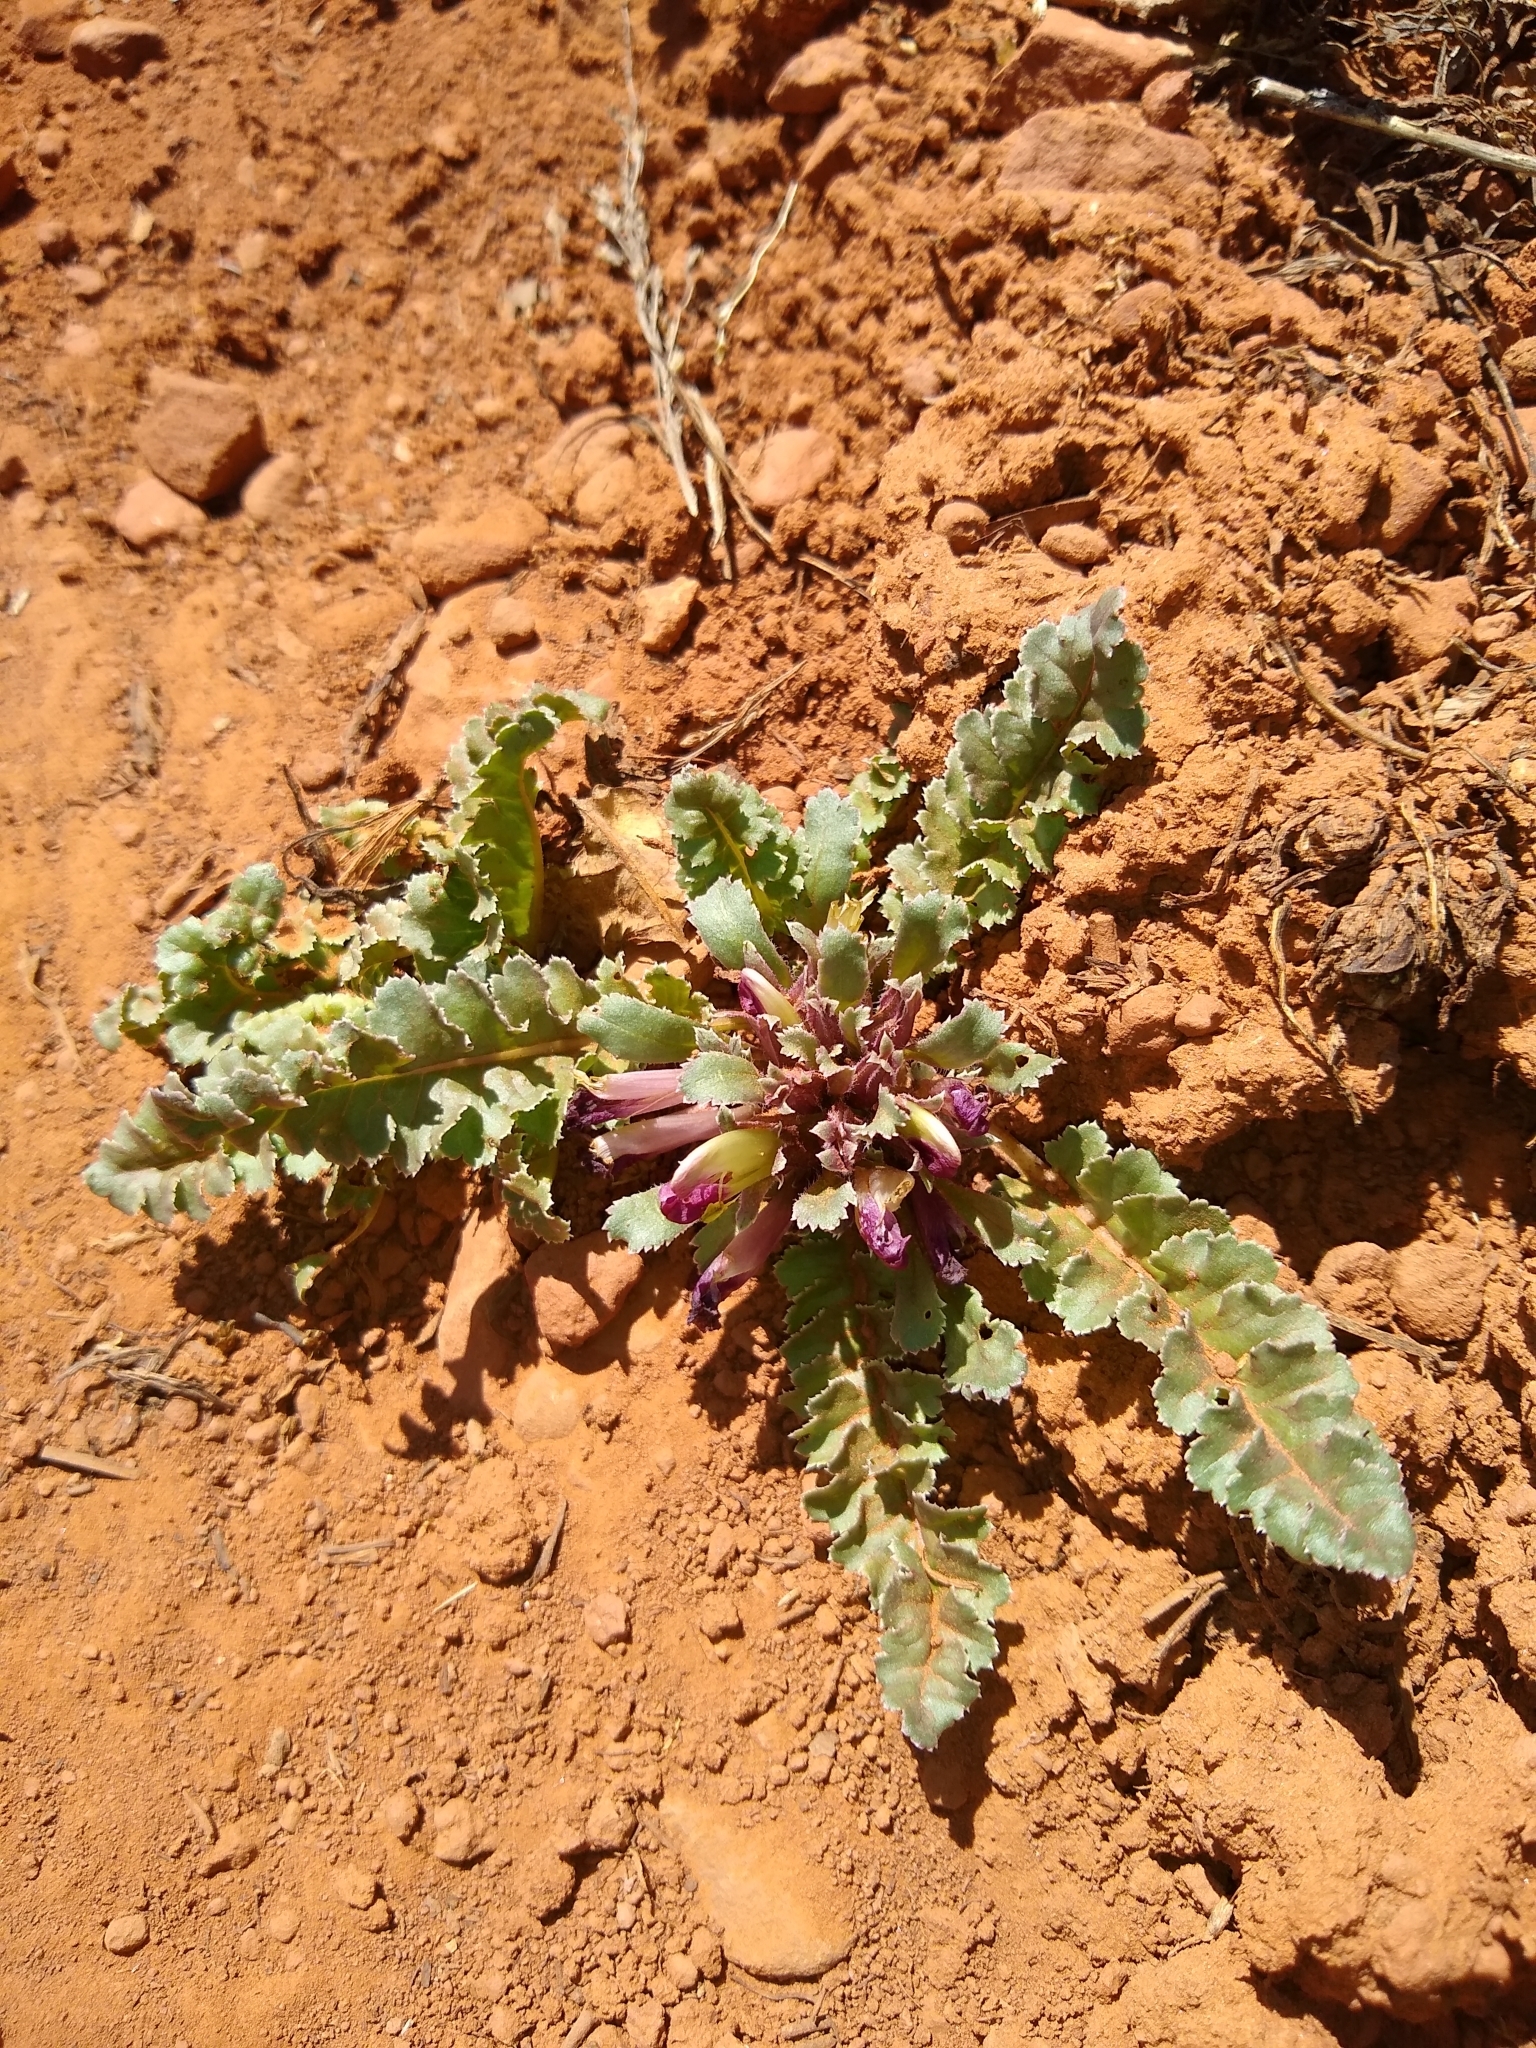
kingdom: Plantae
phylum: Tracheophyta
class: Magnoliopsida
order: Lamiales
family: Orobanchaceae
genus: Pedicularis
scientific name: Pedicularis centranthera
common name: Dwarf lousewort
